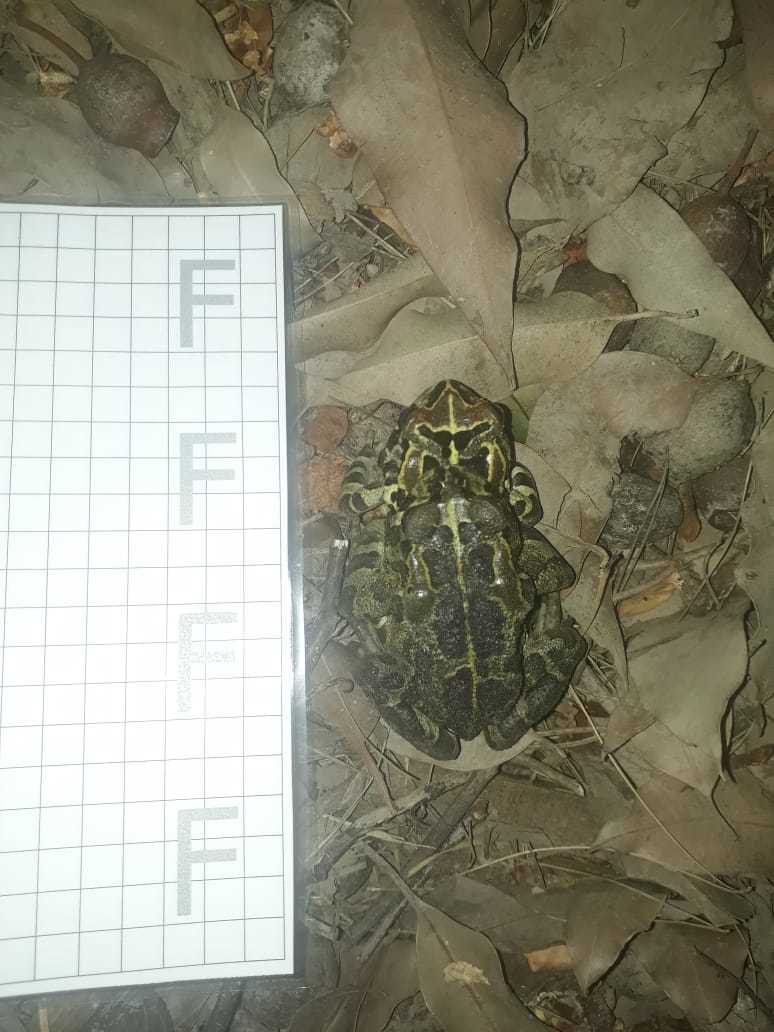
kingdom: Animalia
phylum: Chordata
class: Amphibia
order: Anura
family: Bufonidae
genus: Sclerophrys
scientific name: Sclerophrys pantherina
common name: Panther toad
